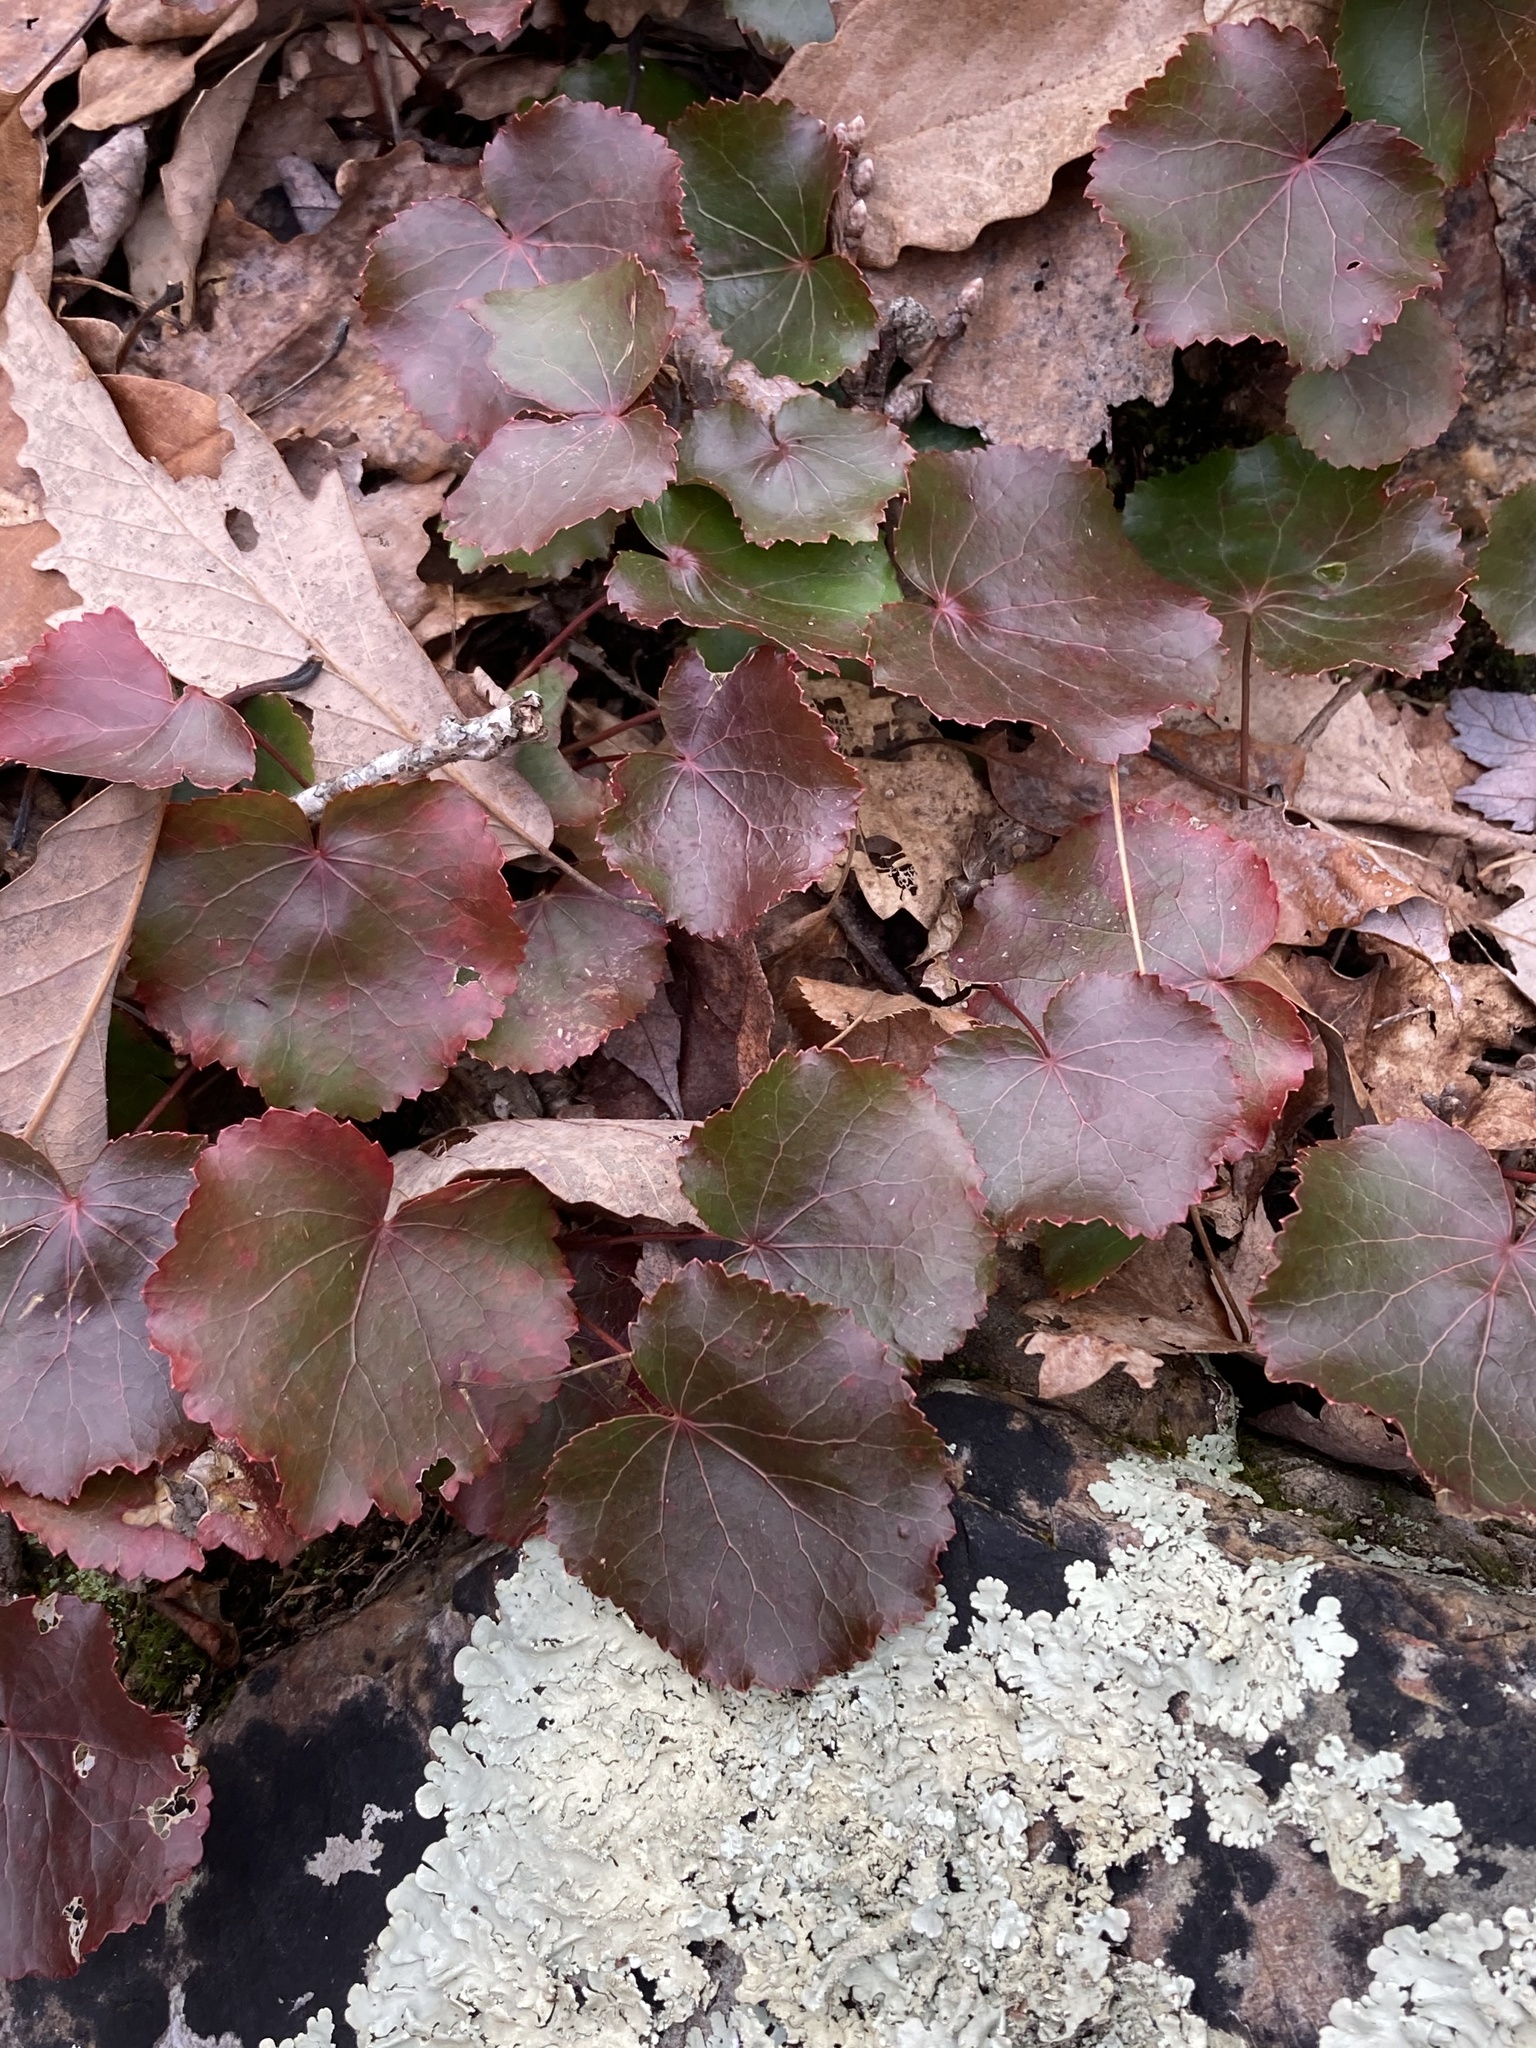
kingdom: Plantae
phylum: Tracheophyta
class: Magnoliopsida
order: Ericales
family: Diapensiaceae
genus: Galax
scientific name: Galax urceolata
